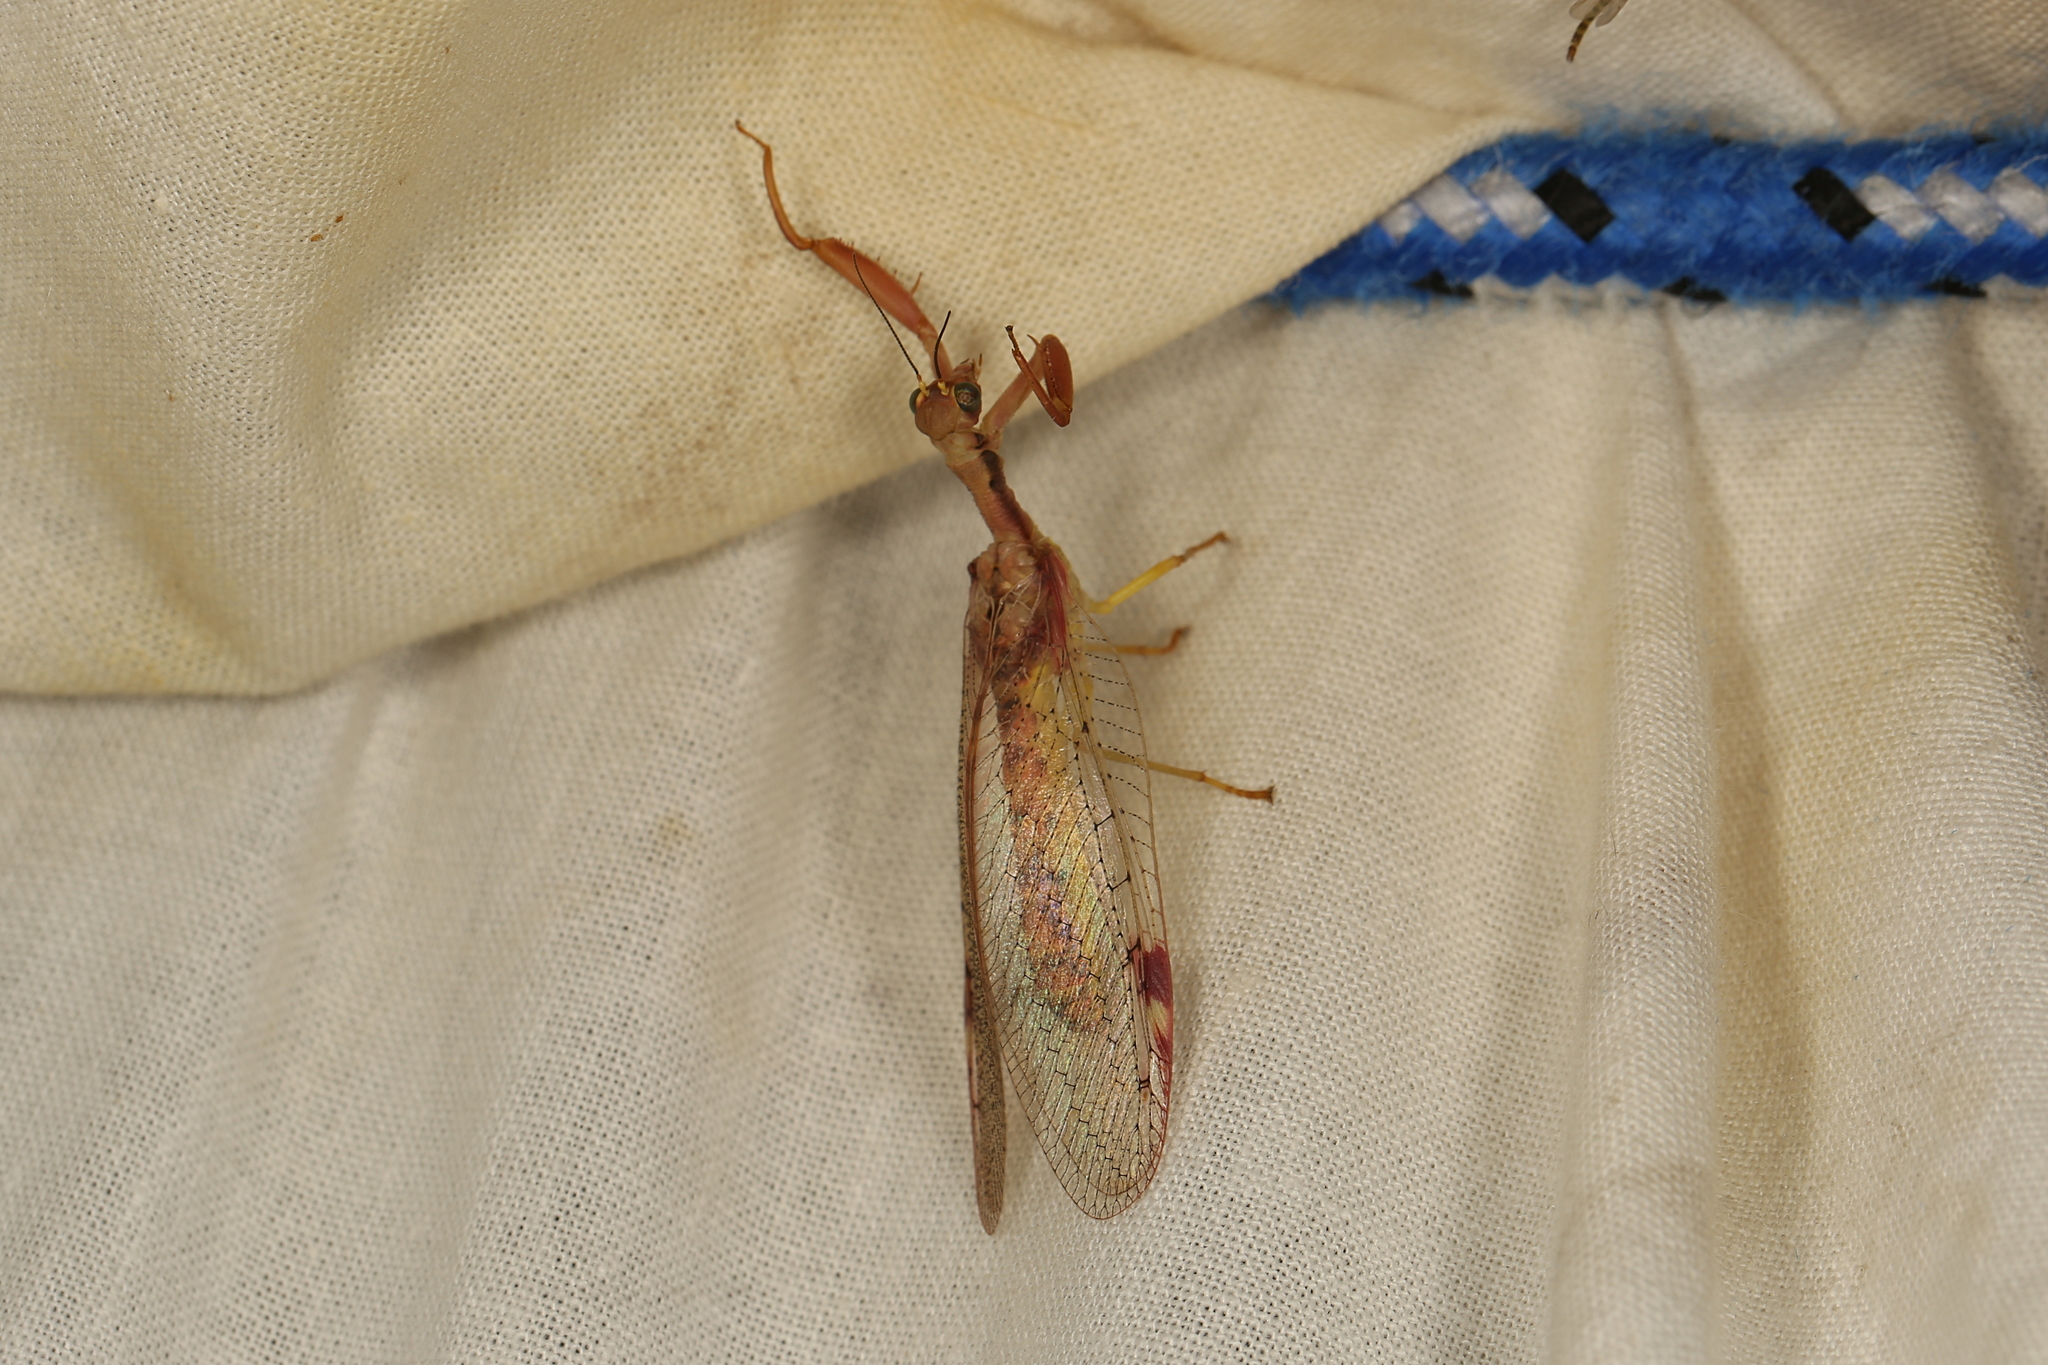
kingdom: Animalia
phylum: Arthropoda
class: Insecta
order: Neuroptera
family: Mantispidae
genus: Ditaxis
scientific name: Ditaxis meridiei
